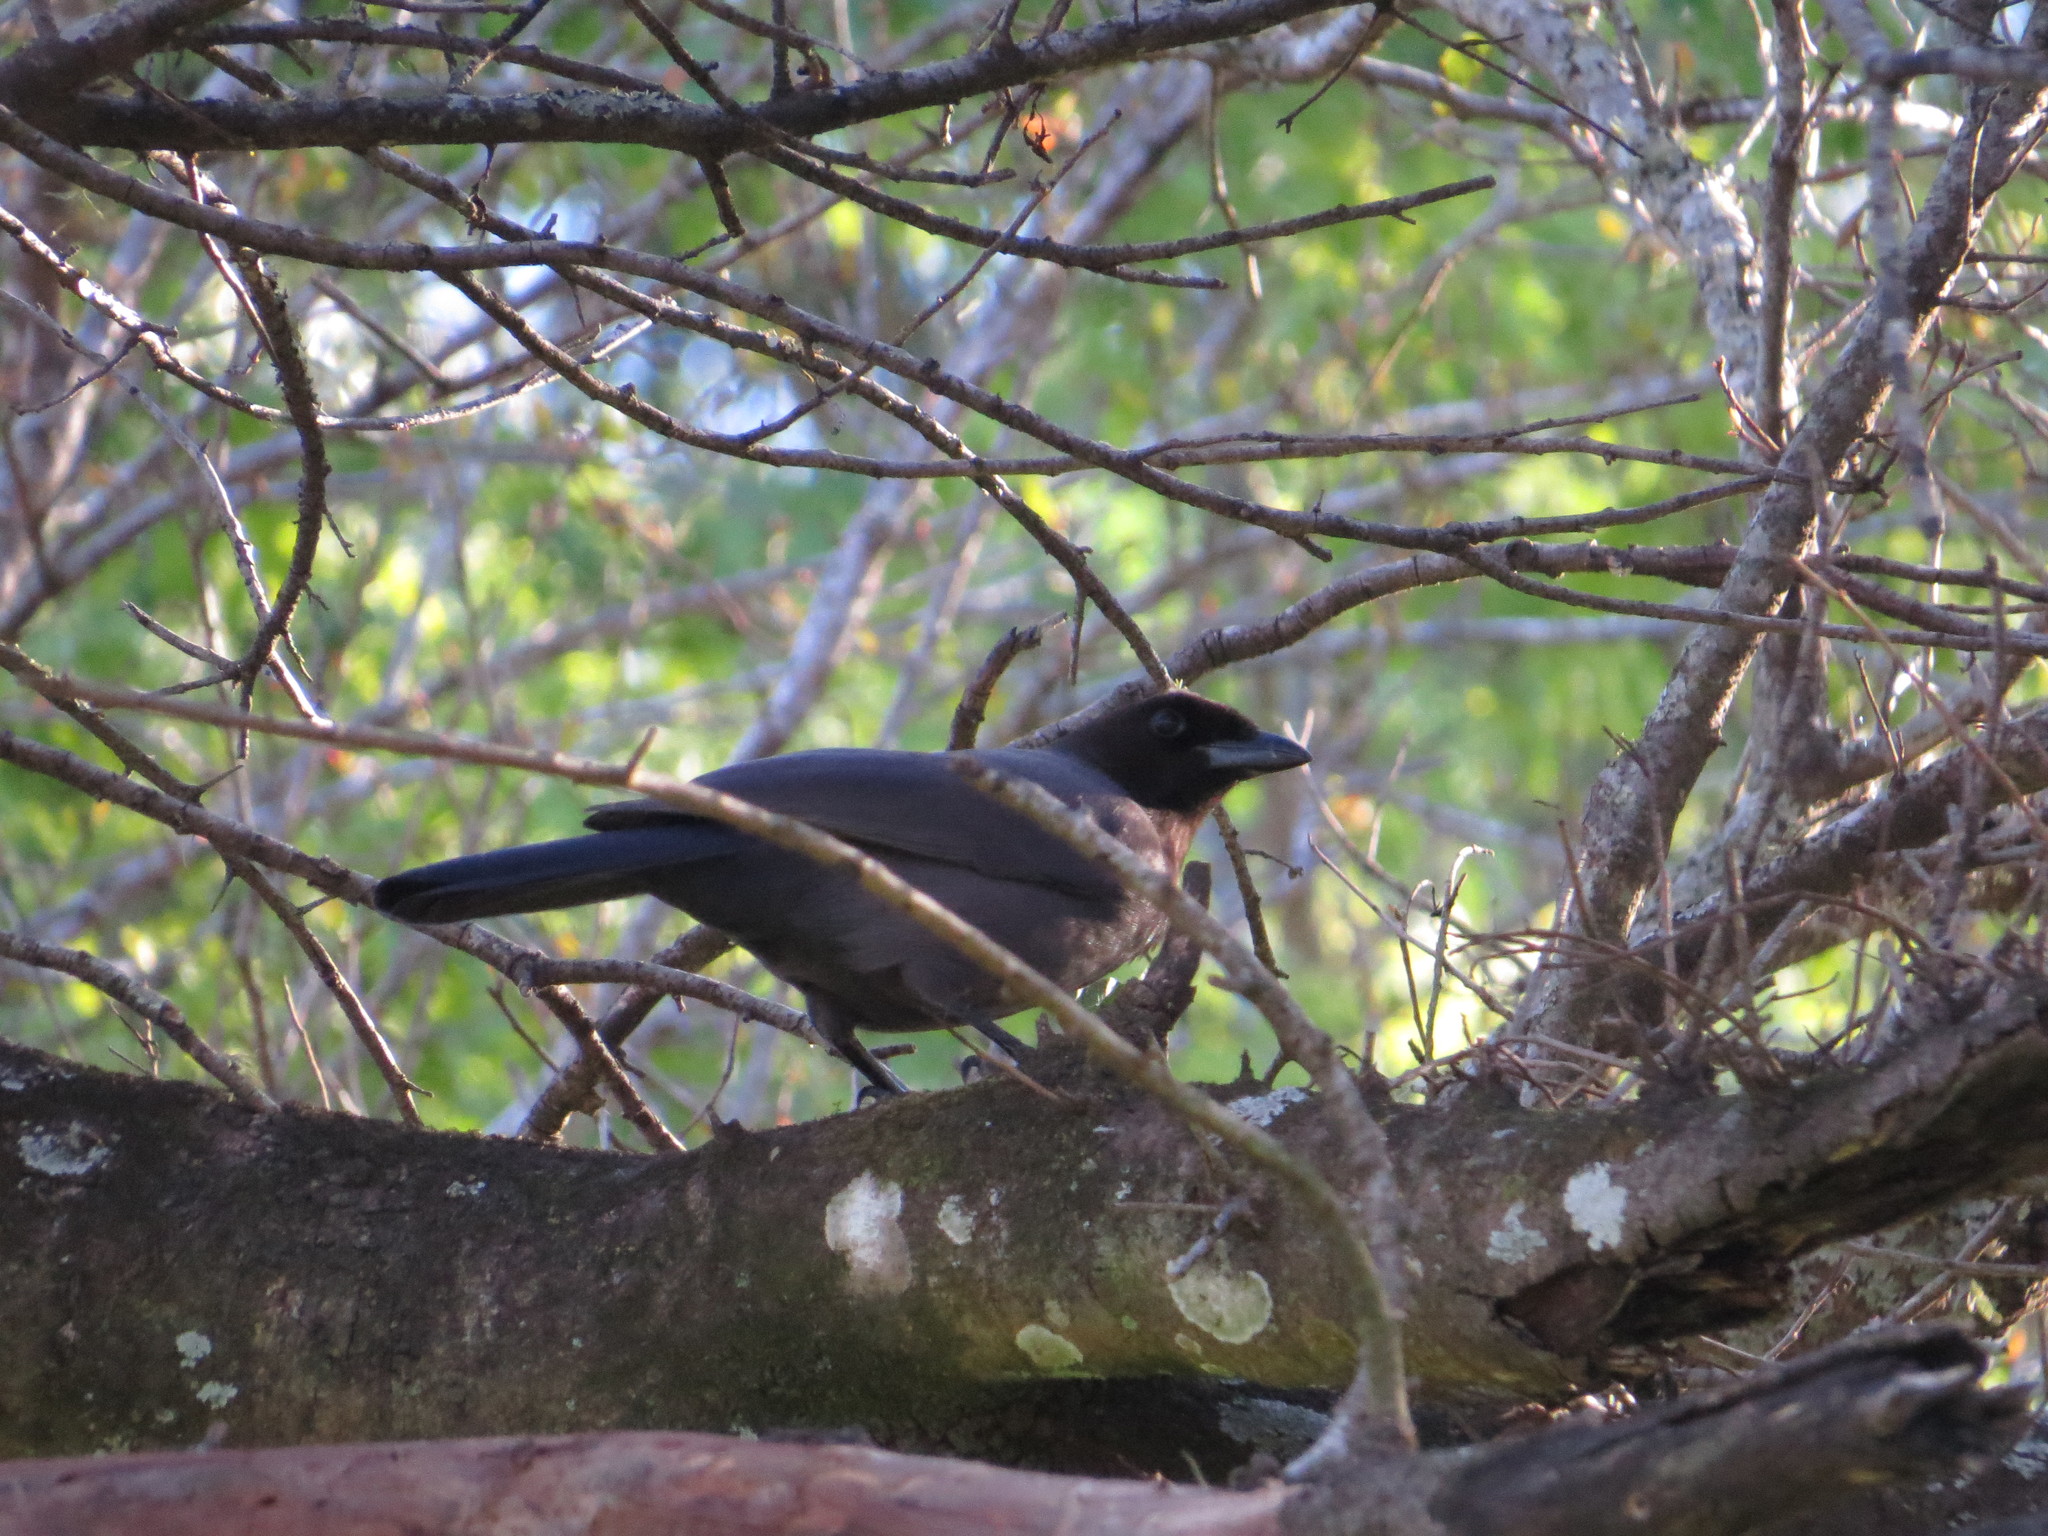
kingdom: Animalia
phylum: Chordata
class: Aves
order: Passeriformes
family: Corvidae
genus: Cyanocorax
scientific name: Cyanocorax cyanomelas
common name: Purplish jay
